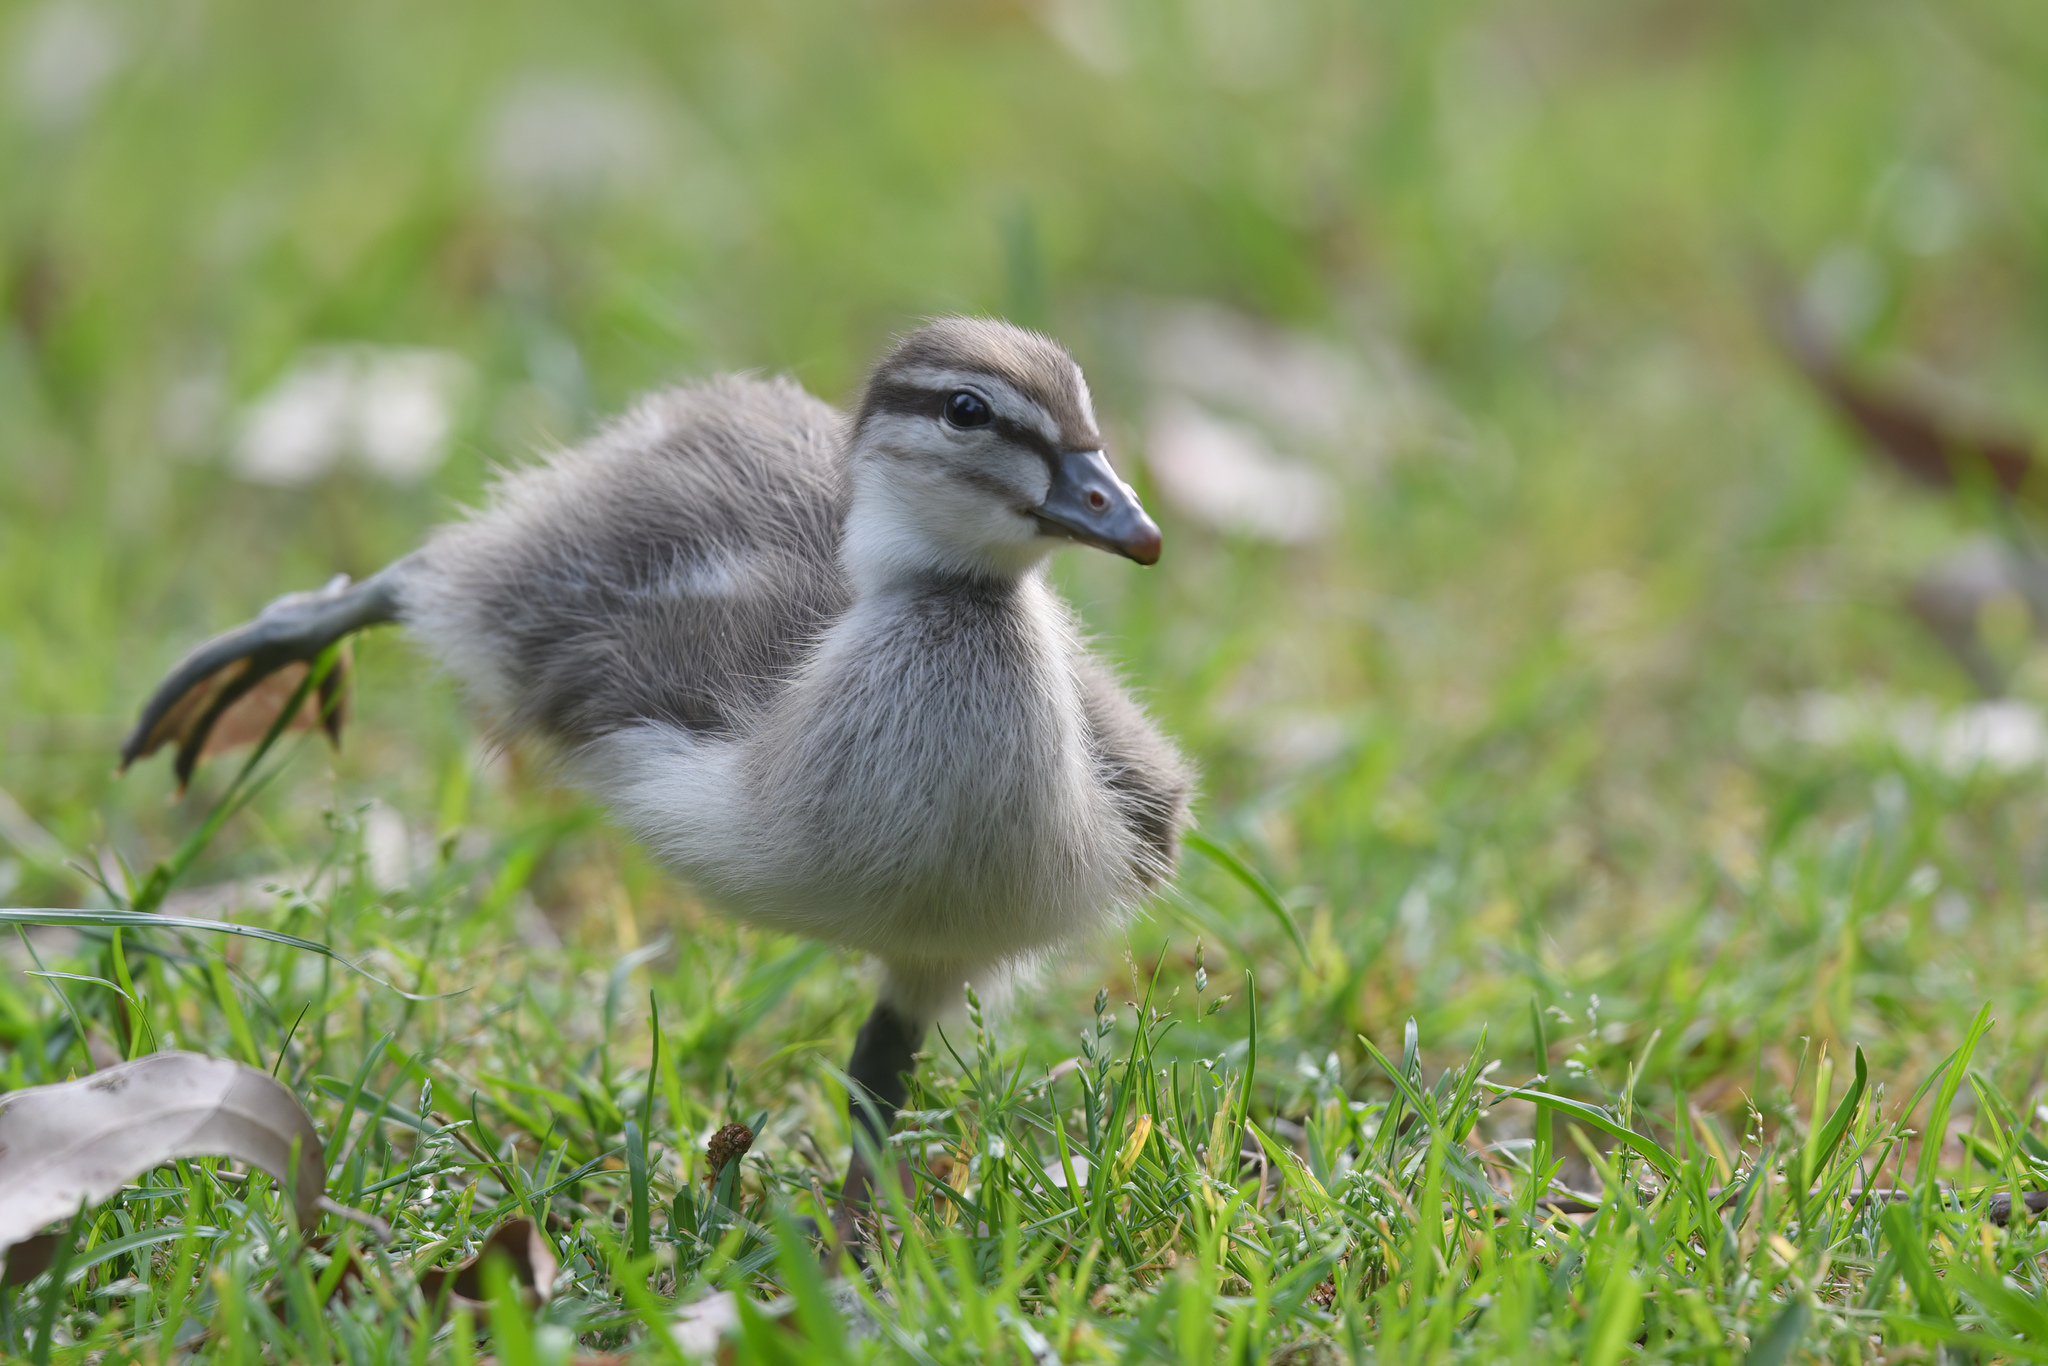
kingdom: Animalia
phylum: Chordata
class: Aves
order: Anseriformes
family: Anatidae
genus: Chenonetta
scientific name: Chenonetta jubata
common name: Maned duck
